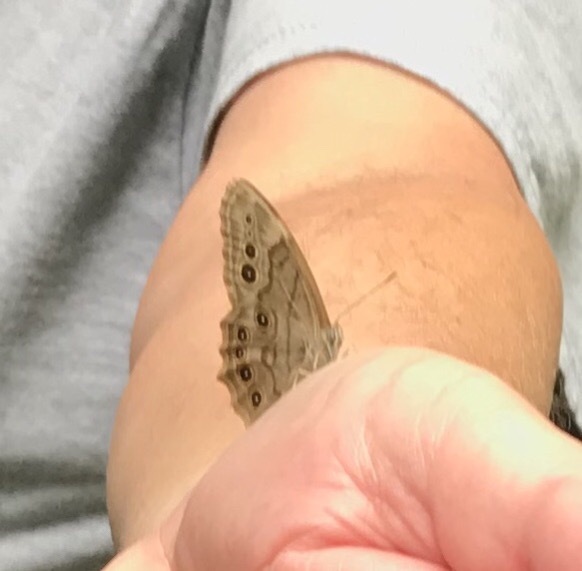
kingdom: Animalia
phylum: Arthropoda
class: Insecta
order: Lepidoptera
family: Nymphalidae
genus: Lethe
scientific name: Lethe anthedon
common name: Northern pearly-eye
